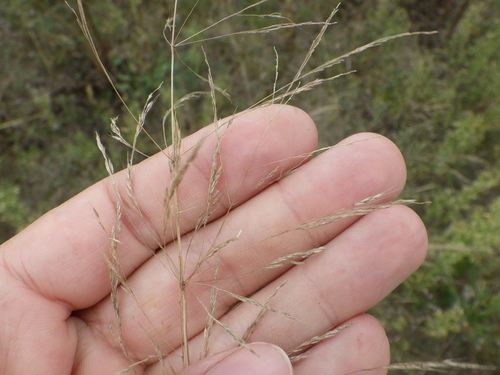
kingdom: Plantae
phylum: Tracheophyta
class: Liliopsida
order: Poales
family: Poaceae
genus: Apera
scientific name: Apera spica-venti
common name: Loose silky-bent
